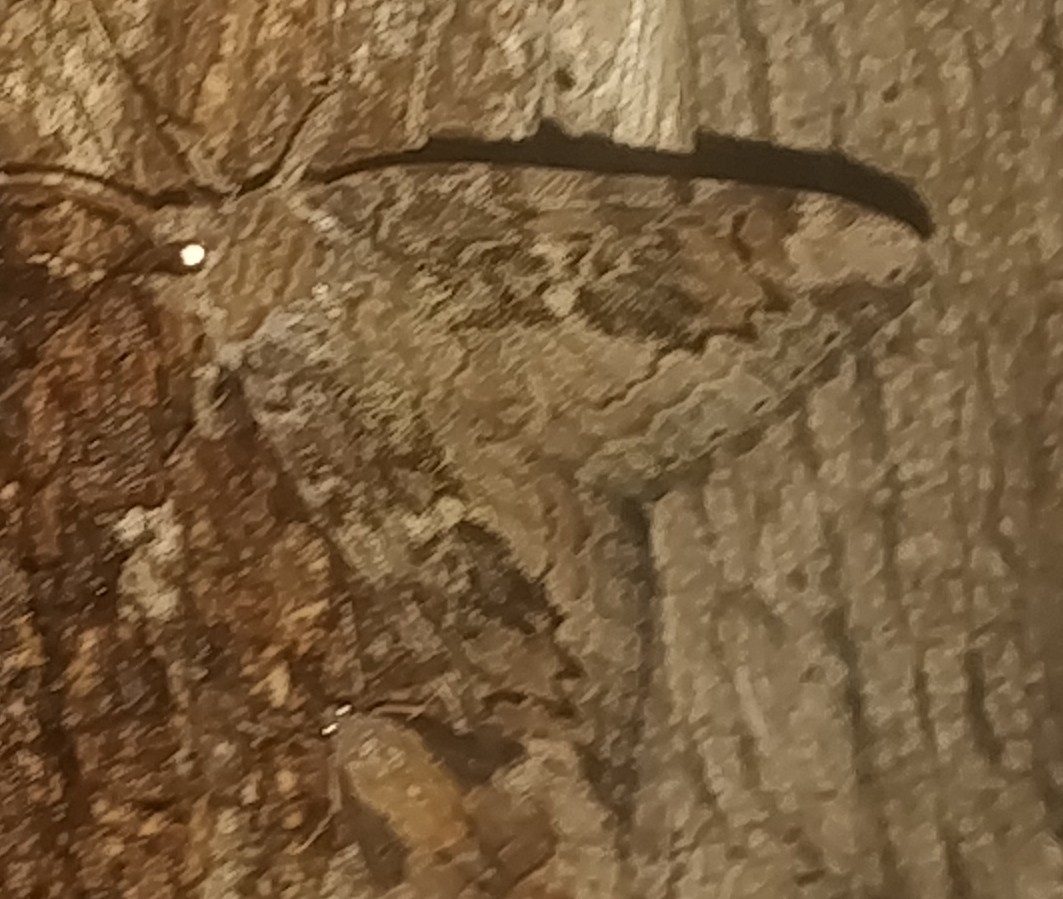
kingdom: Animalia
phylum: Arthropoda
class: Insecta
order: Lepidoptera
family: Erebidae
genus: Catocala
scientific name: Catocala innubens
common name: Betrothed underwing
